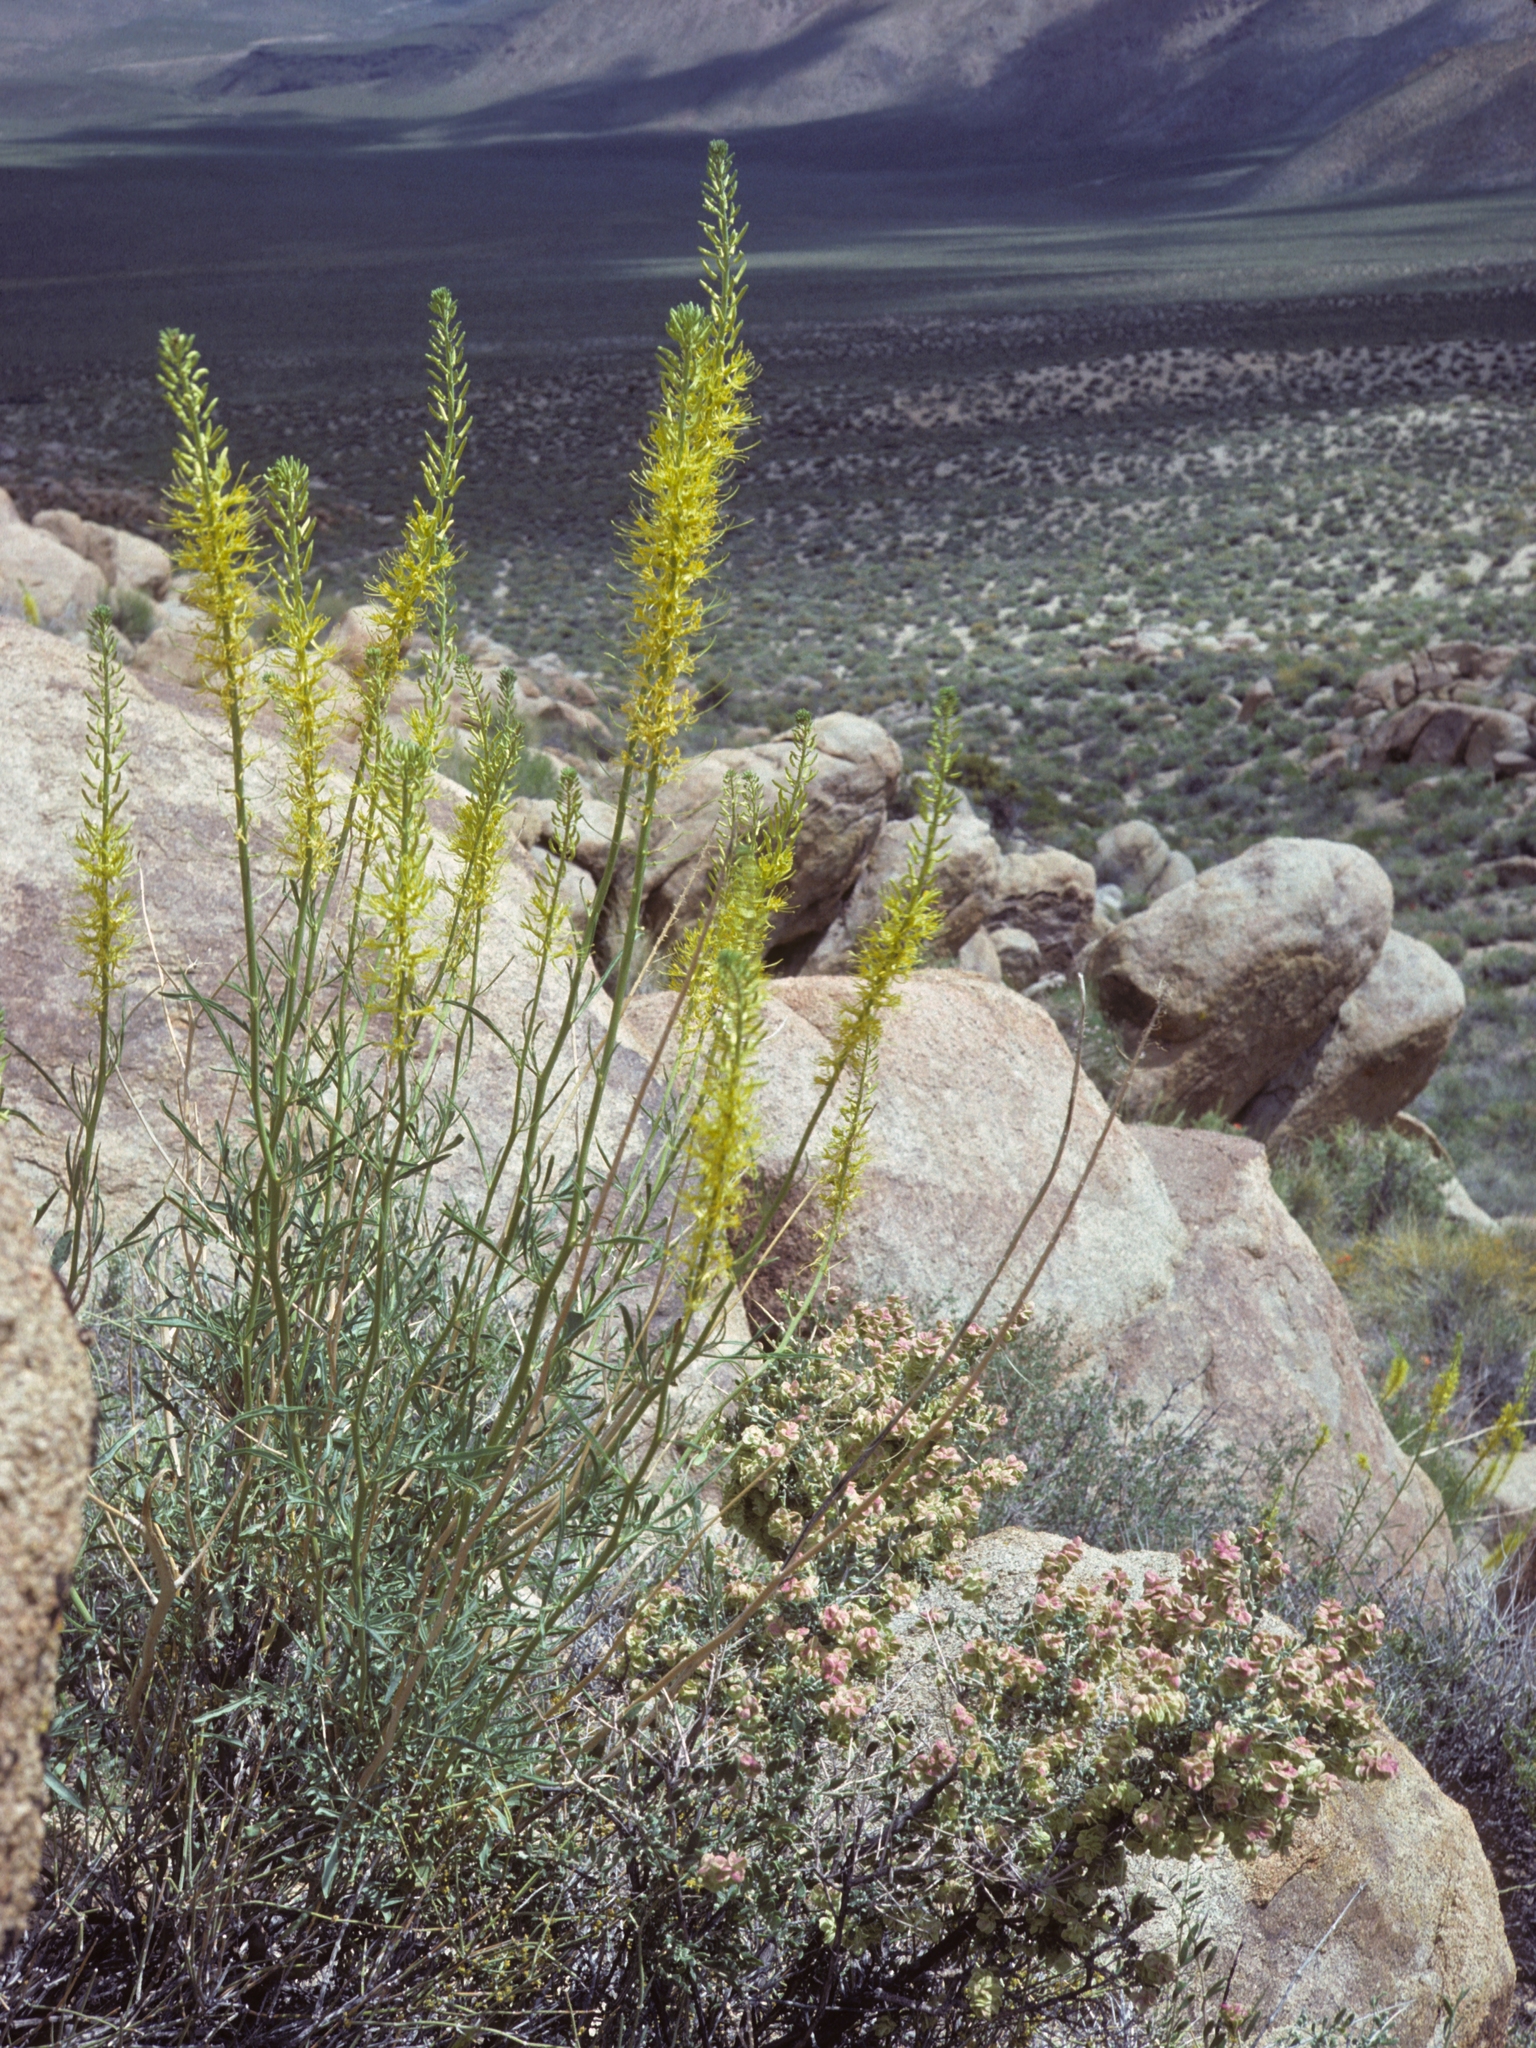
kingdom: Plantae
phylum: Tracheophyta
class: Magnoliopsida
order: Brassicales
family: Brassicaceae
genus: Stanleya
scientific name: Stanleya pinnata
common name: Prince's-plume
